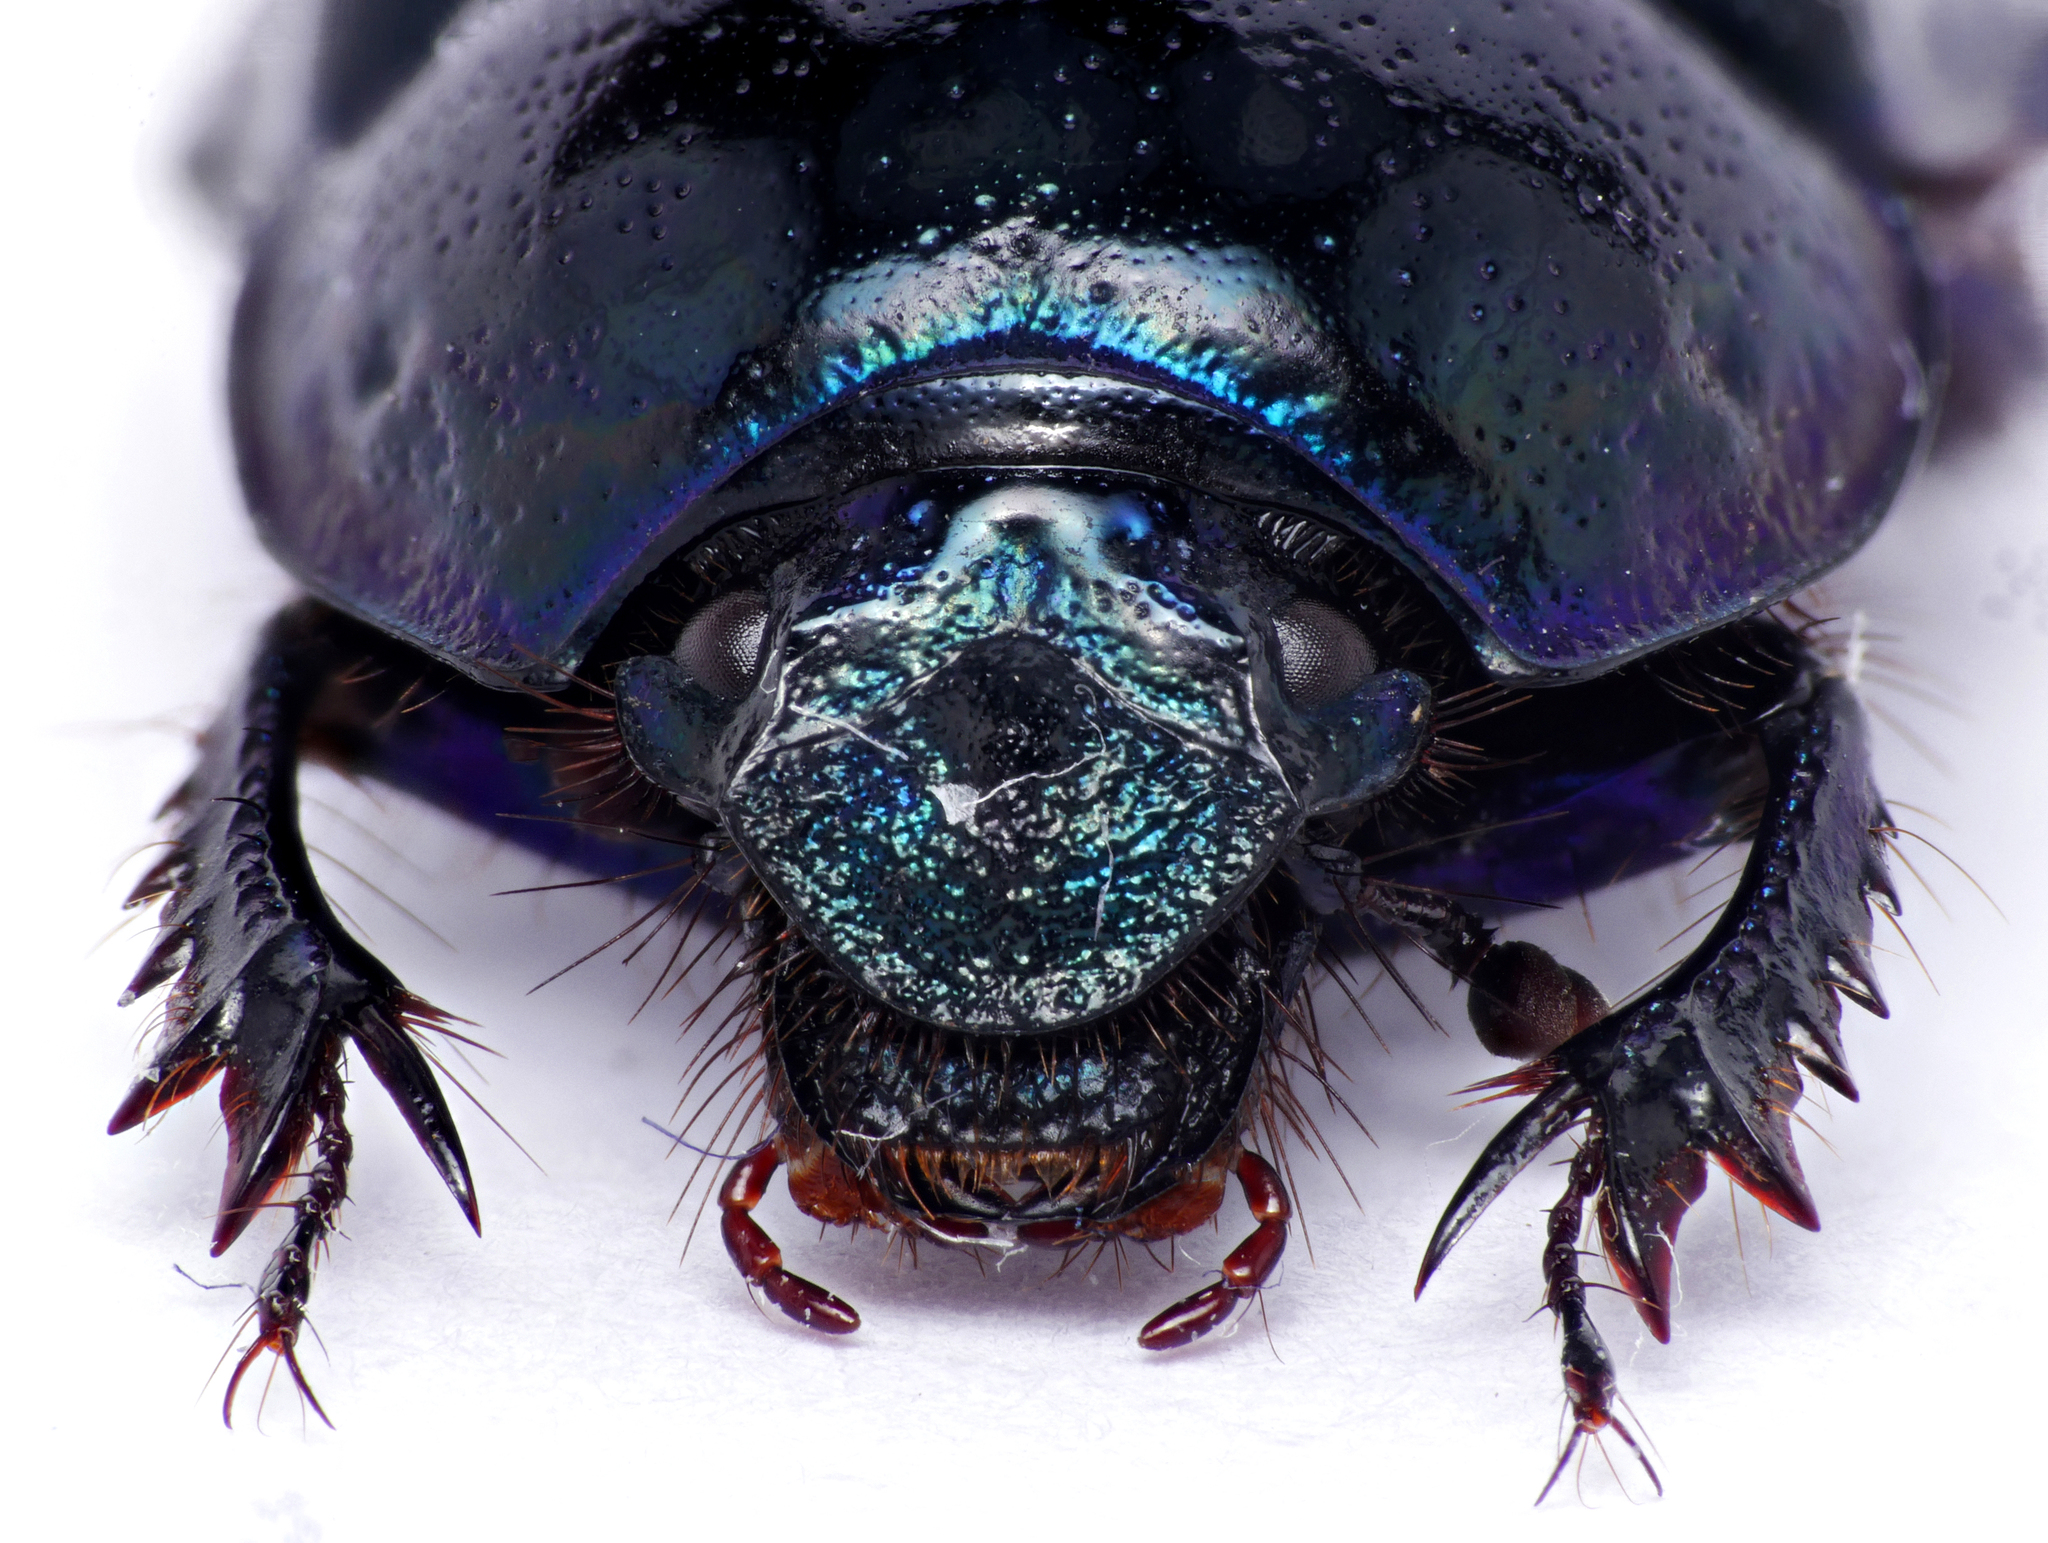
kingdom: Animalia
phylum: Arthropoda
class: Insecta
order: Coleoptera
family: Geotrupidae
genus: Anoplotrupes
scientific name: Anoplotrupes stercorosus
